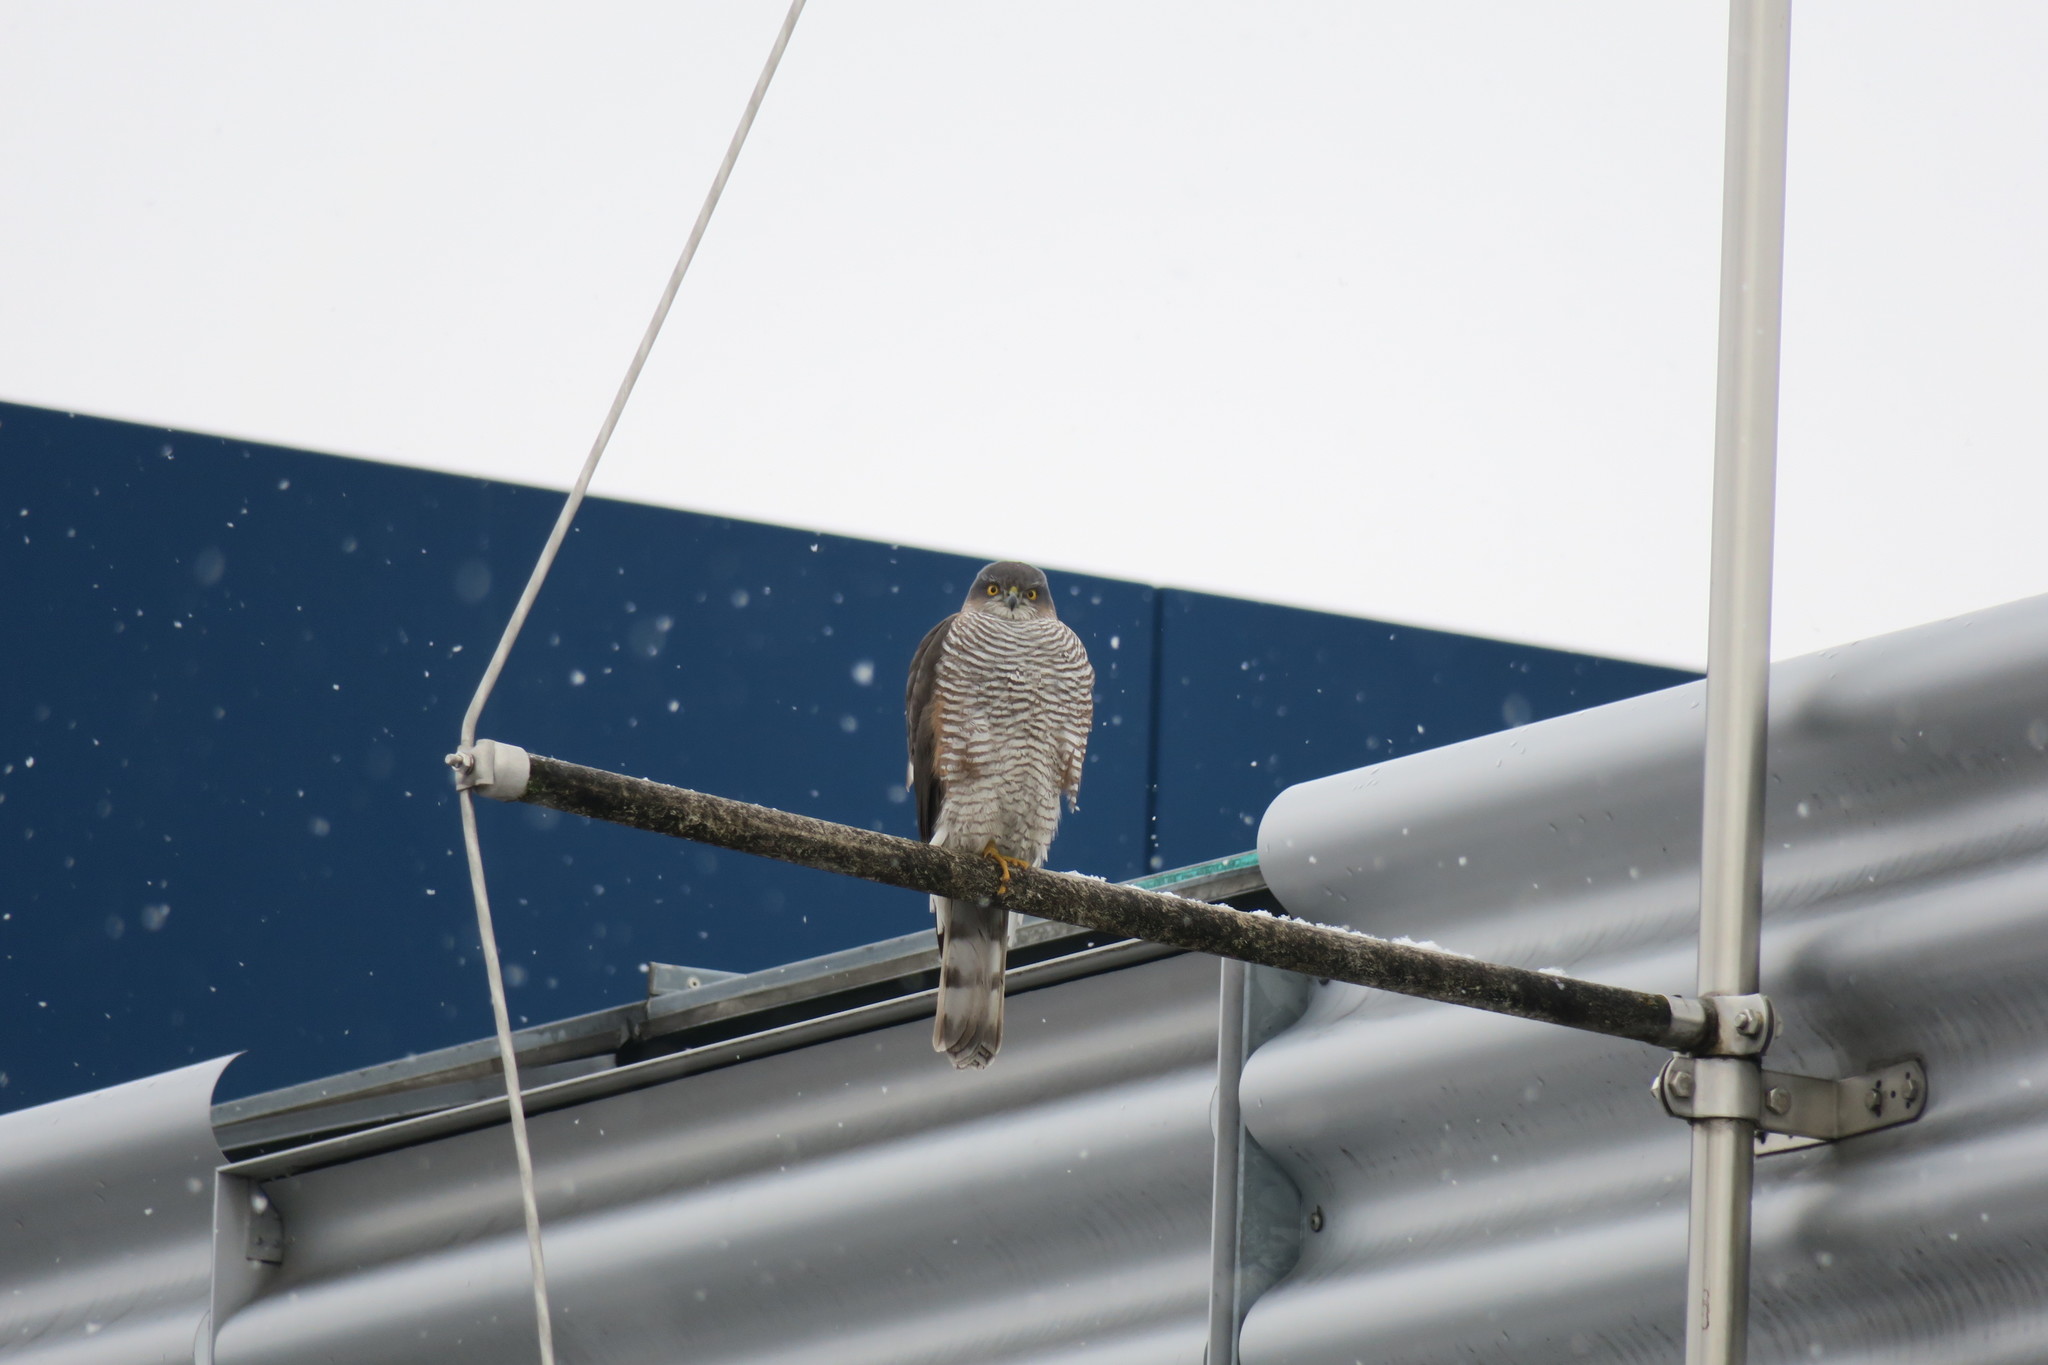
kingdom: Animalia
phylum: Chordata
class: Aves
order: Accipitriformes
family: Accipitridae
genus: Accipiter
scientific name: Accipiter nisus
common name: Eurasian sparrowhawk
